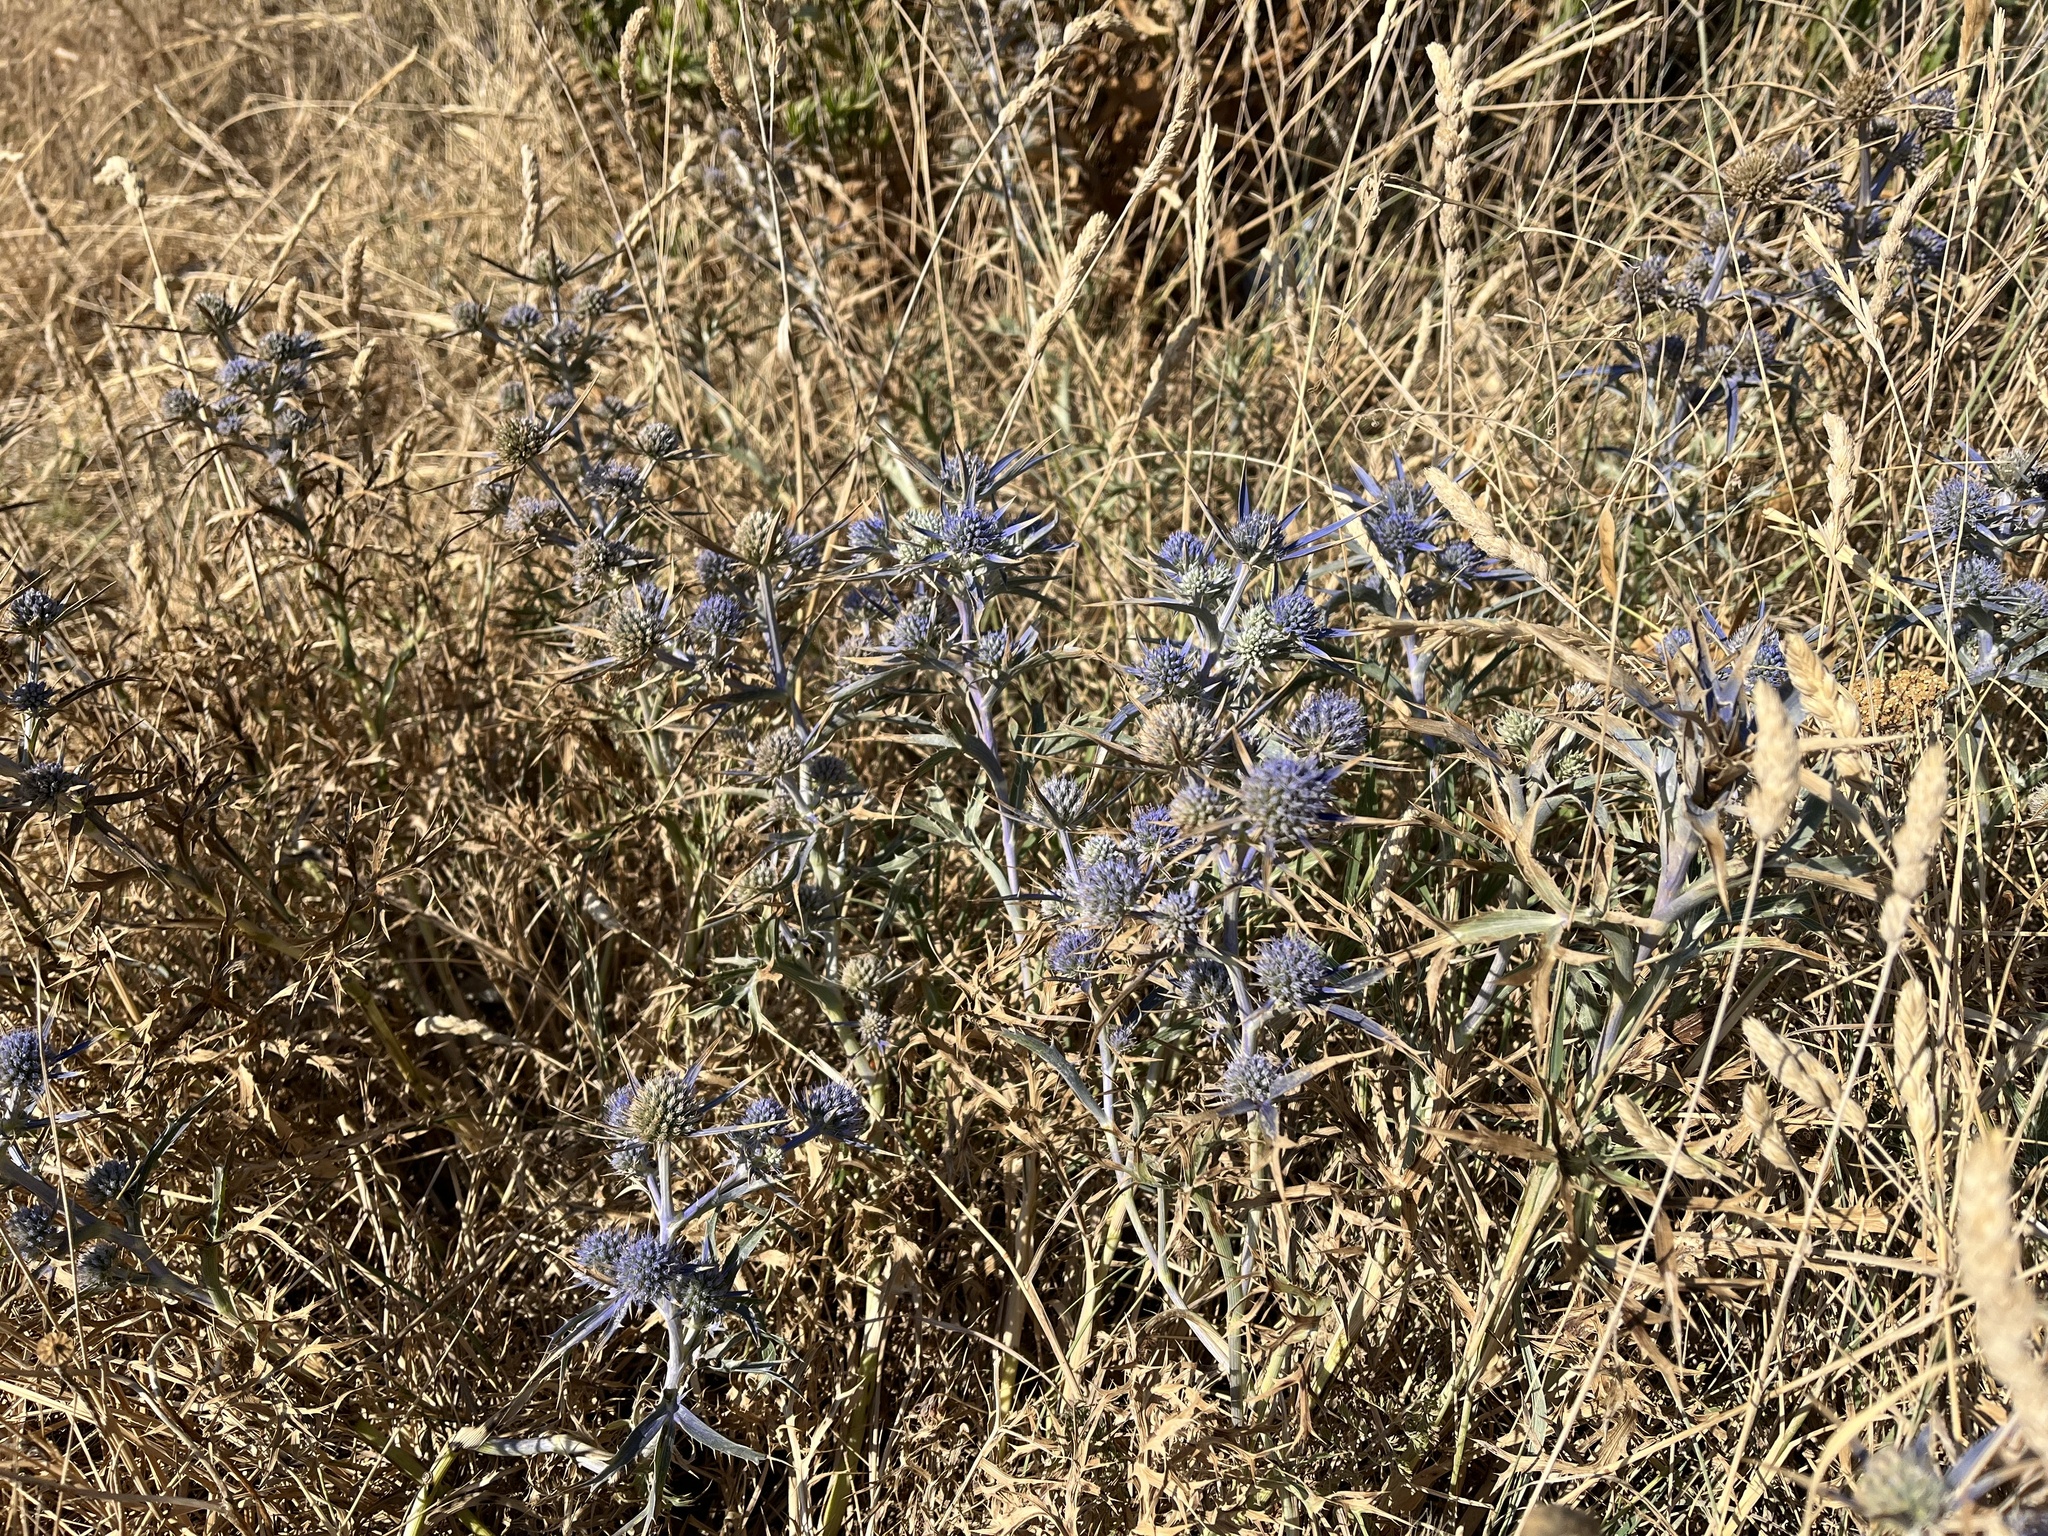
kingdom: Plantae
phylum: Tracheophyta
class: Magnoliopsida
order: Apiales
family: Apiaceae
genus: Eryngium
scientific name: Eryngium amethystinum
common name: Amethyst eryngo
